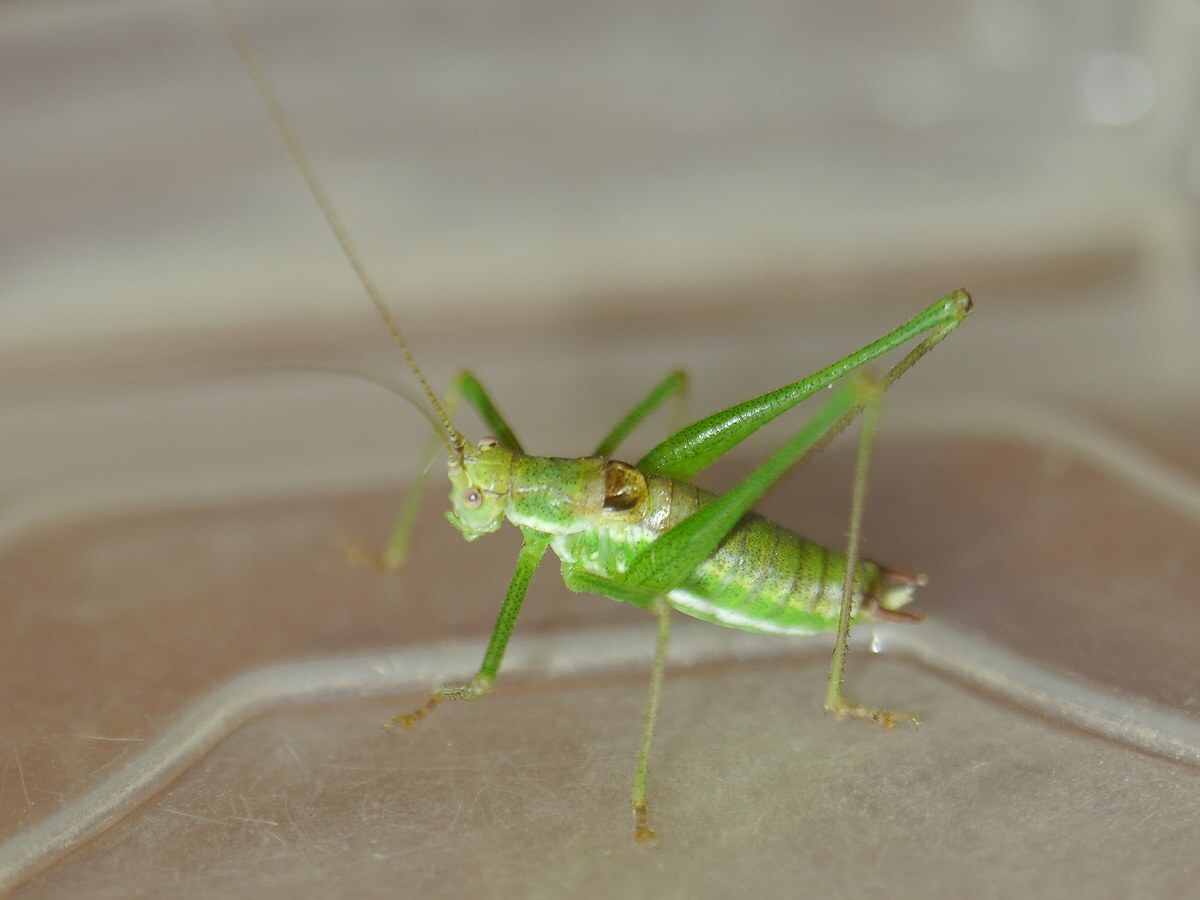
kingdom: Animalia
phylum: Arthropoda
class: Insecta
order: Orthoptera
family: Tettigoniidae
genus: Leptophyes
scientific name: Leptophyes albovittata
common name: Striped bush-cricket
